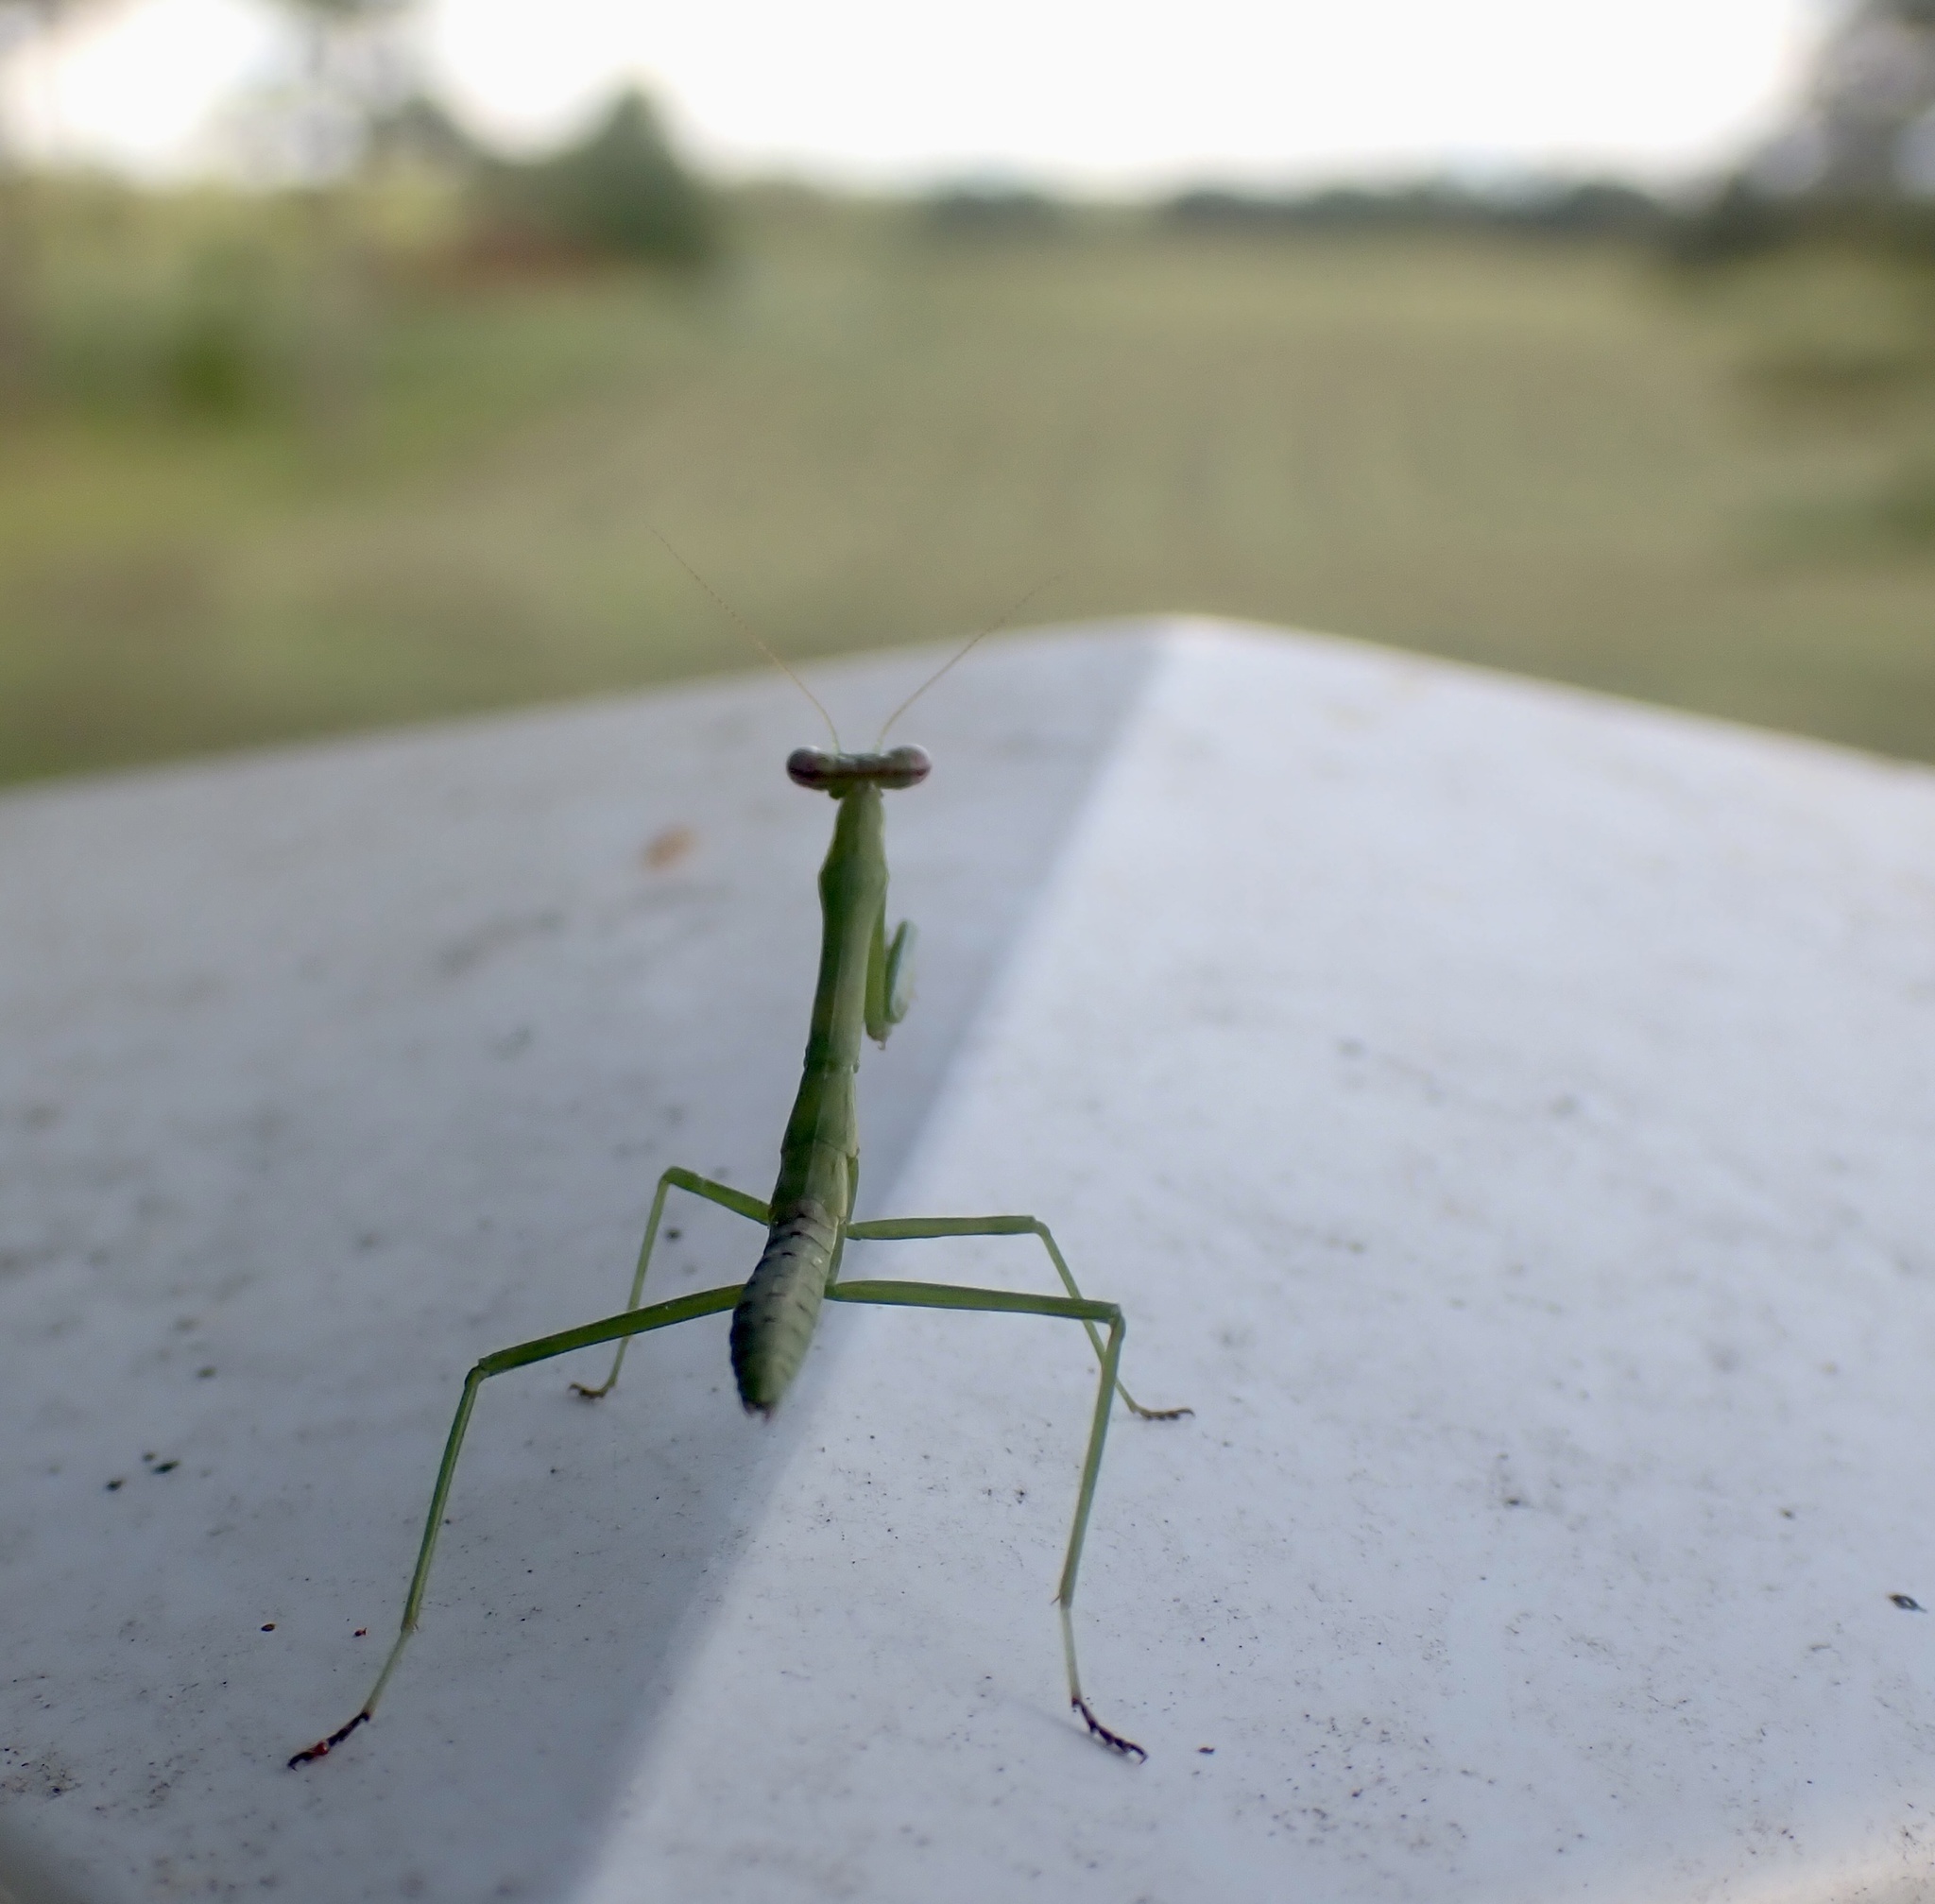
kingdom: Animalia
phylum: Arthropoda
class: Insecta
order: Mantodea
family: Mantidae
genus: Stagmomantis
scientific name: Stagmomantis carolina
